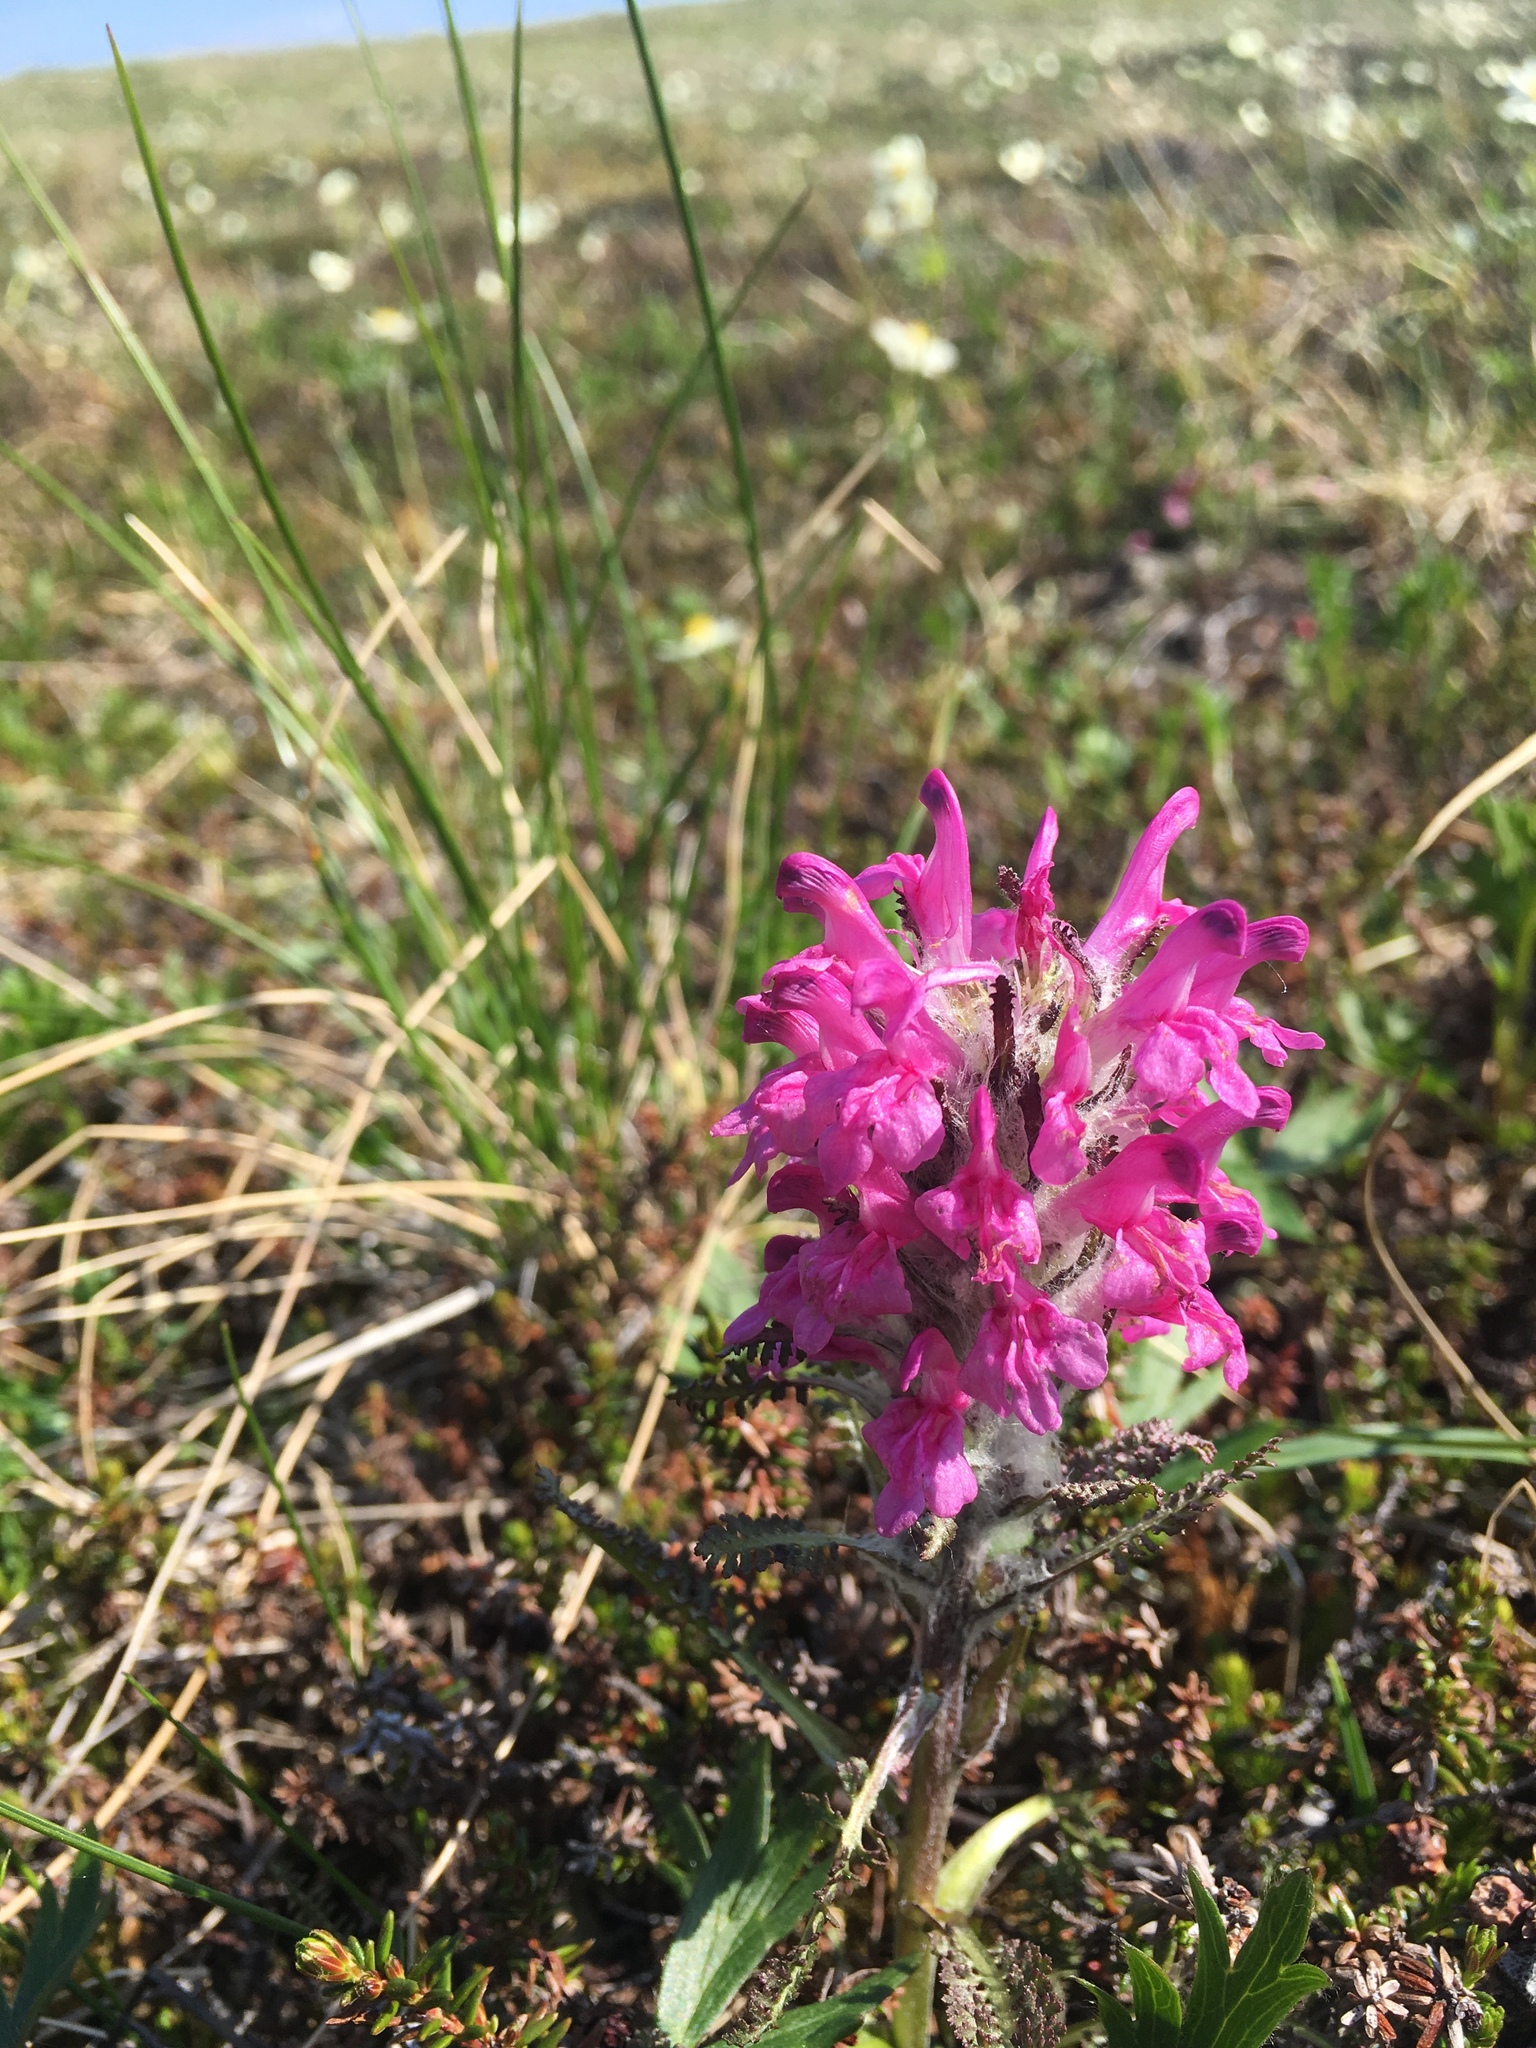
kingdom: Plantae
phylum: Tracheophyta
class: Magnoliopsida
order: Lamiales
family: Orobanchaceae
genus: Pedicularis
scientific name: Pedicularis lanata
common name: Woolly lousewort
